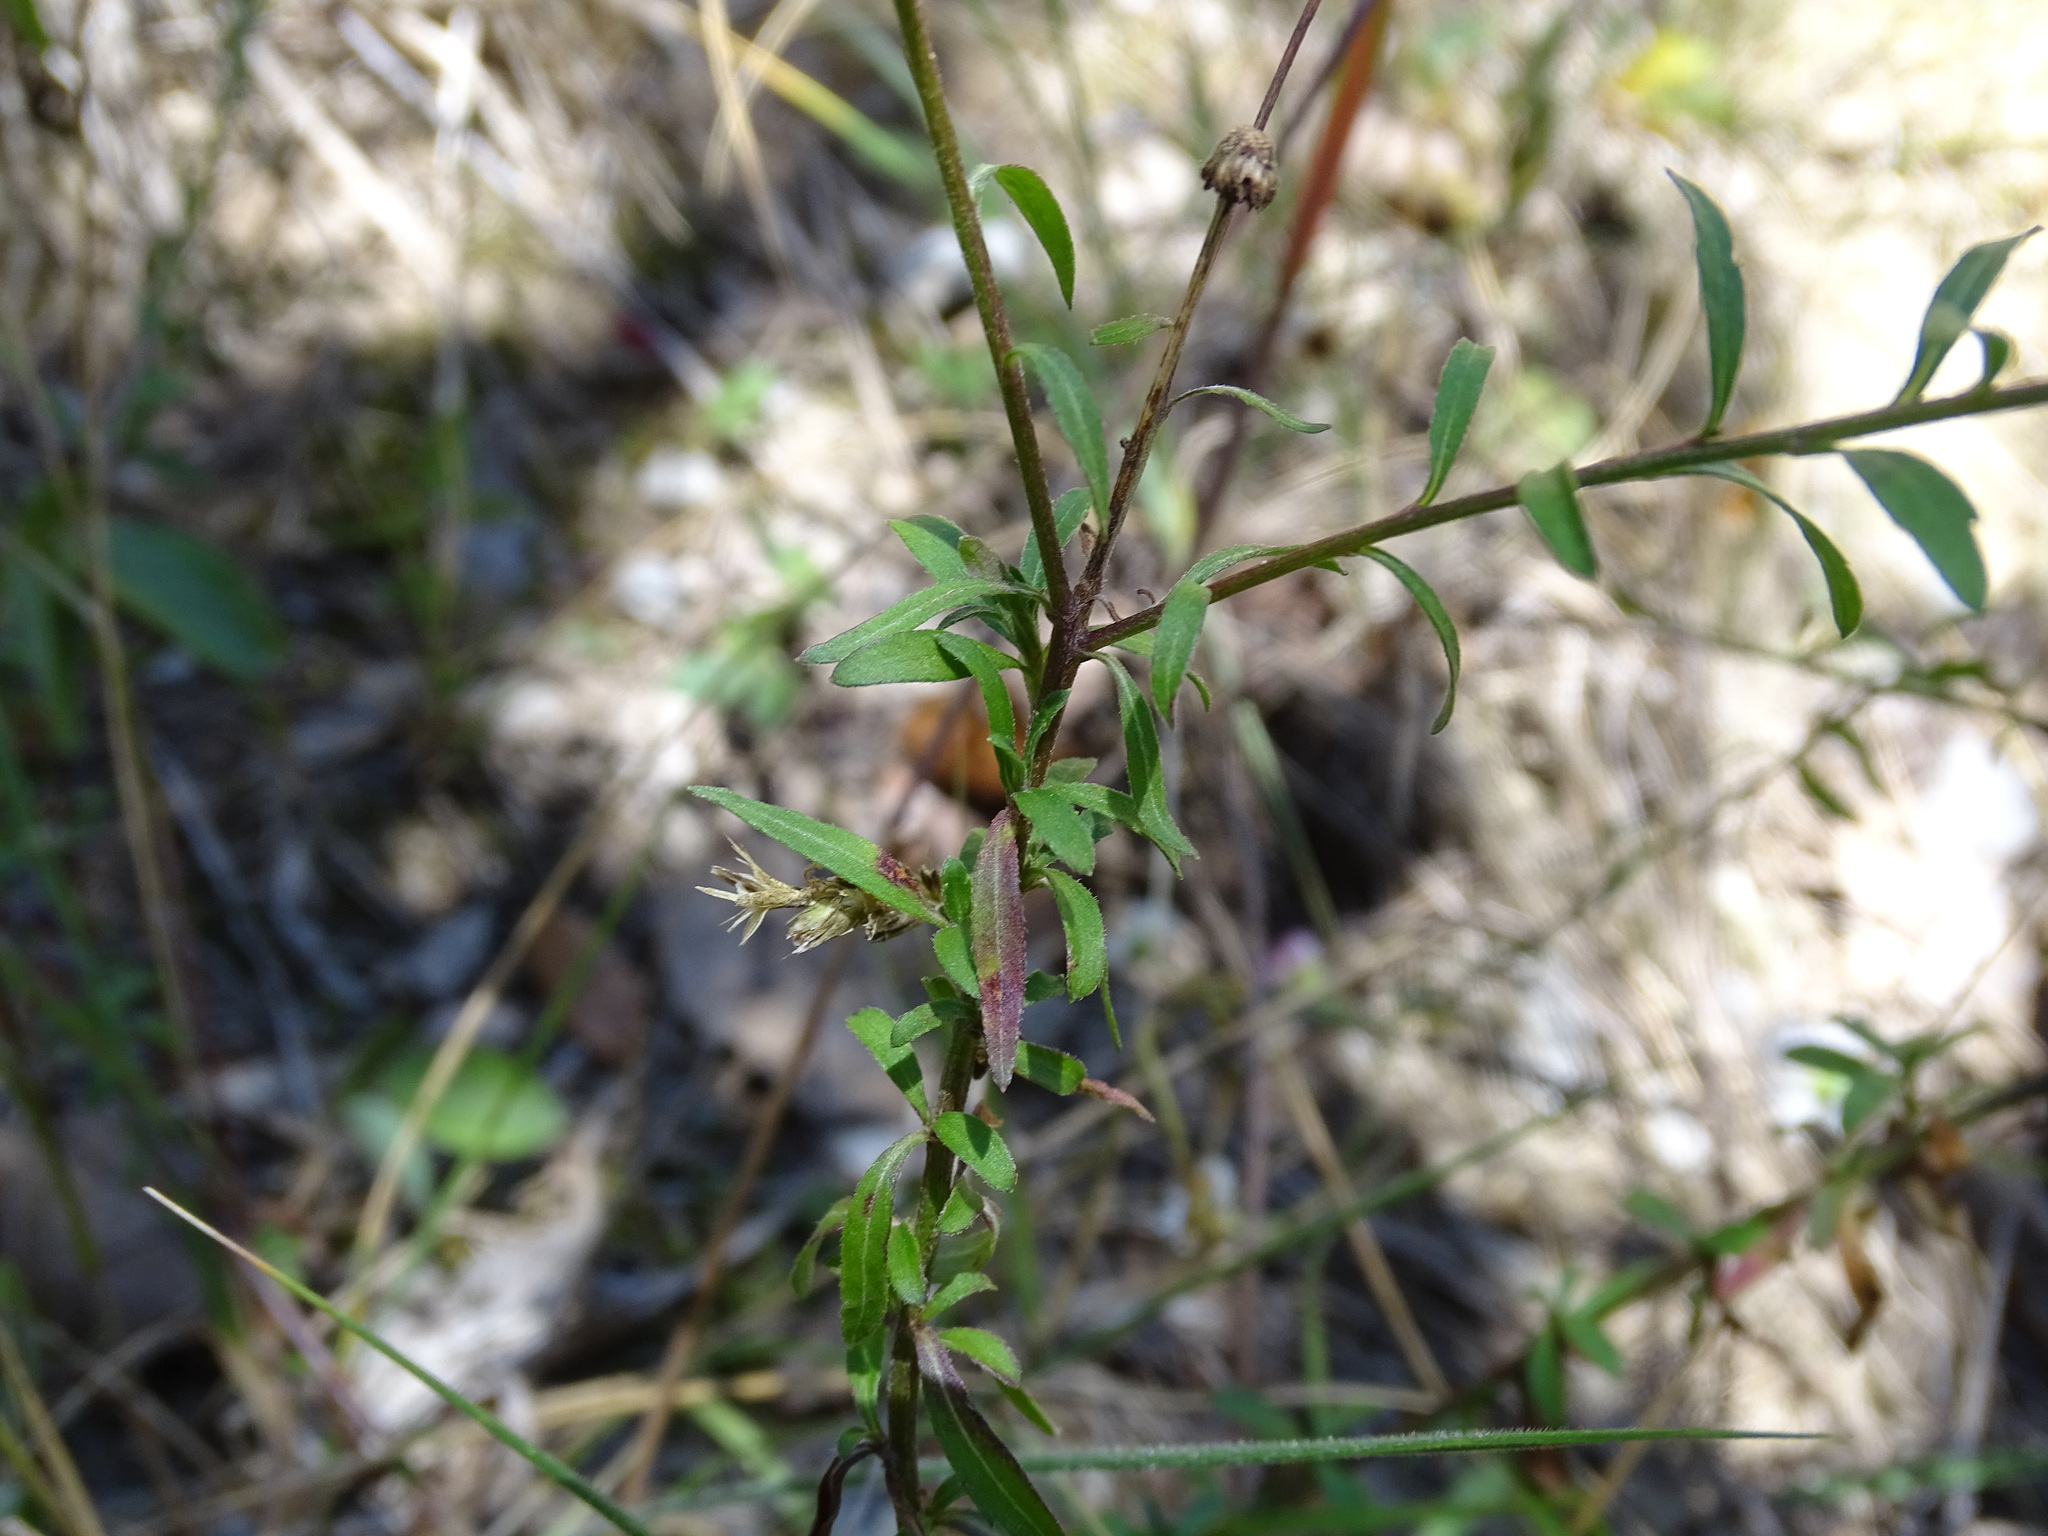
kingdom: Plantae
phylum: Tracheophyta
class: Magnoliopsida
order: Asterales
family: Asteraceae
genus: Erigeron
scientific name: Erigeron karvinskianus
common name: Mexican fleabane
